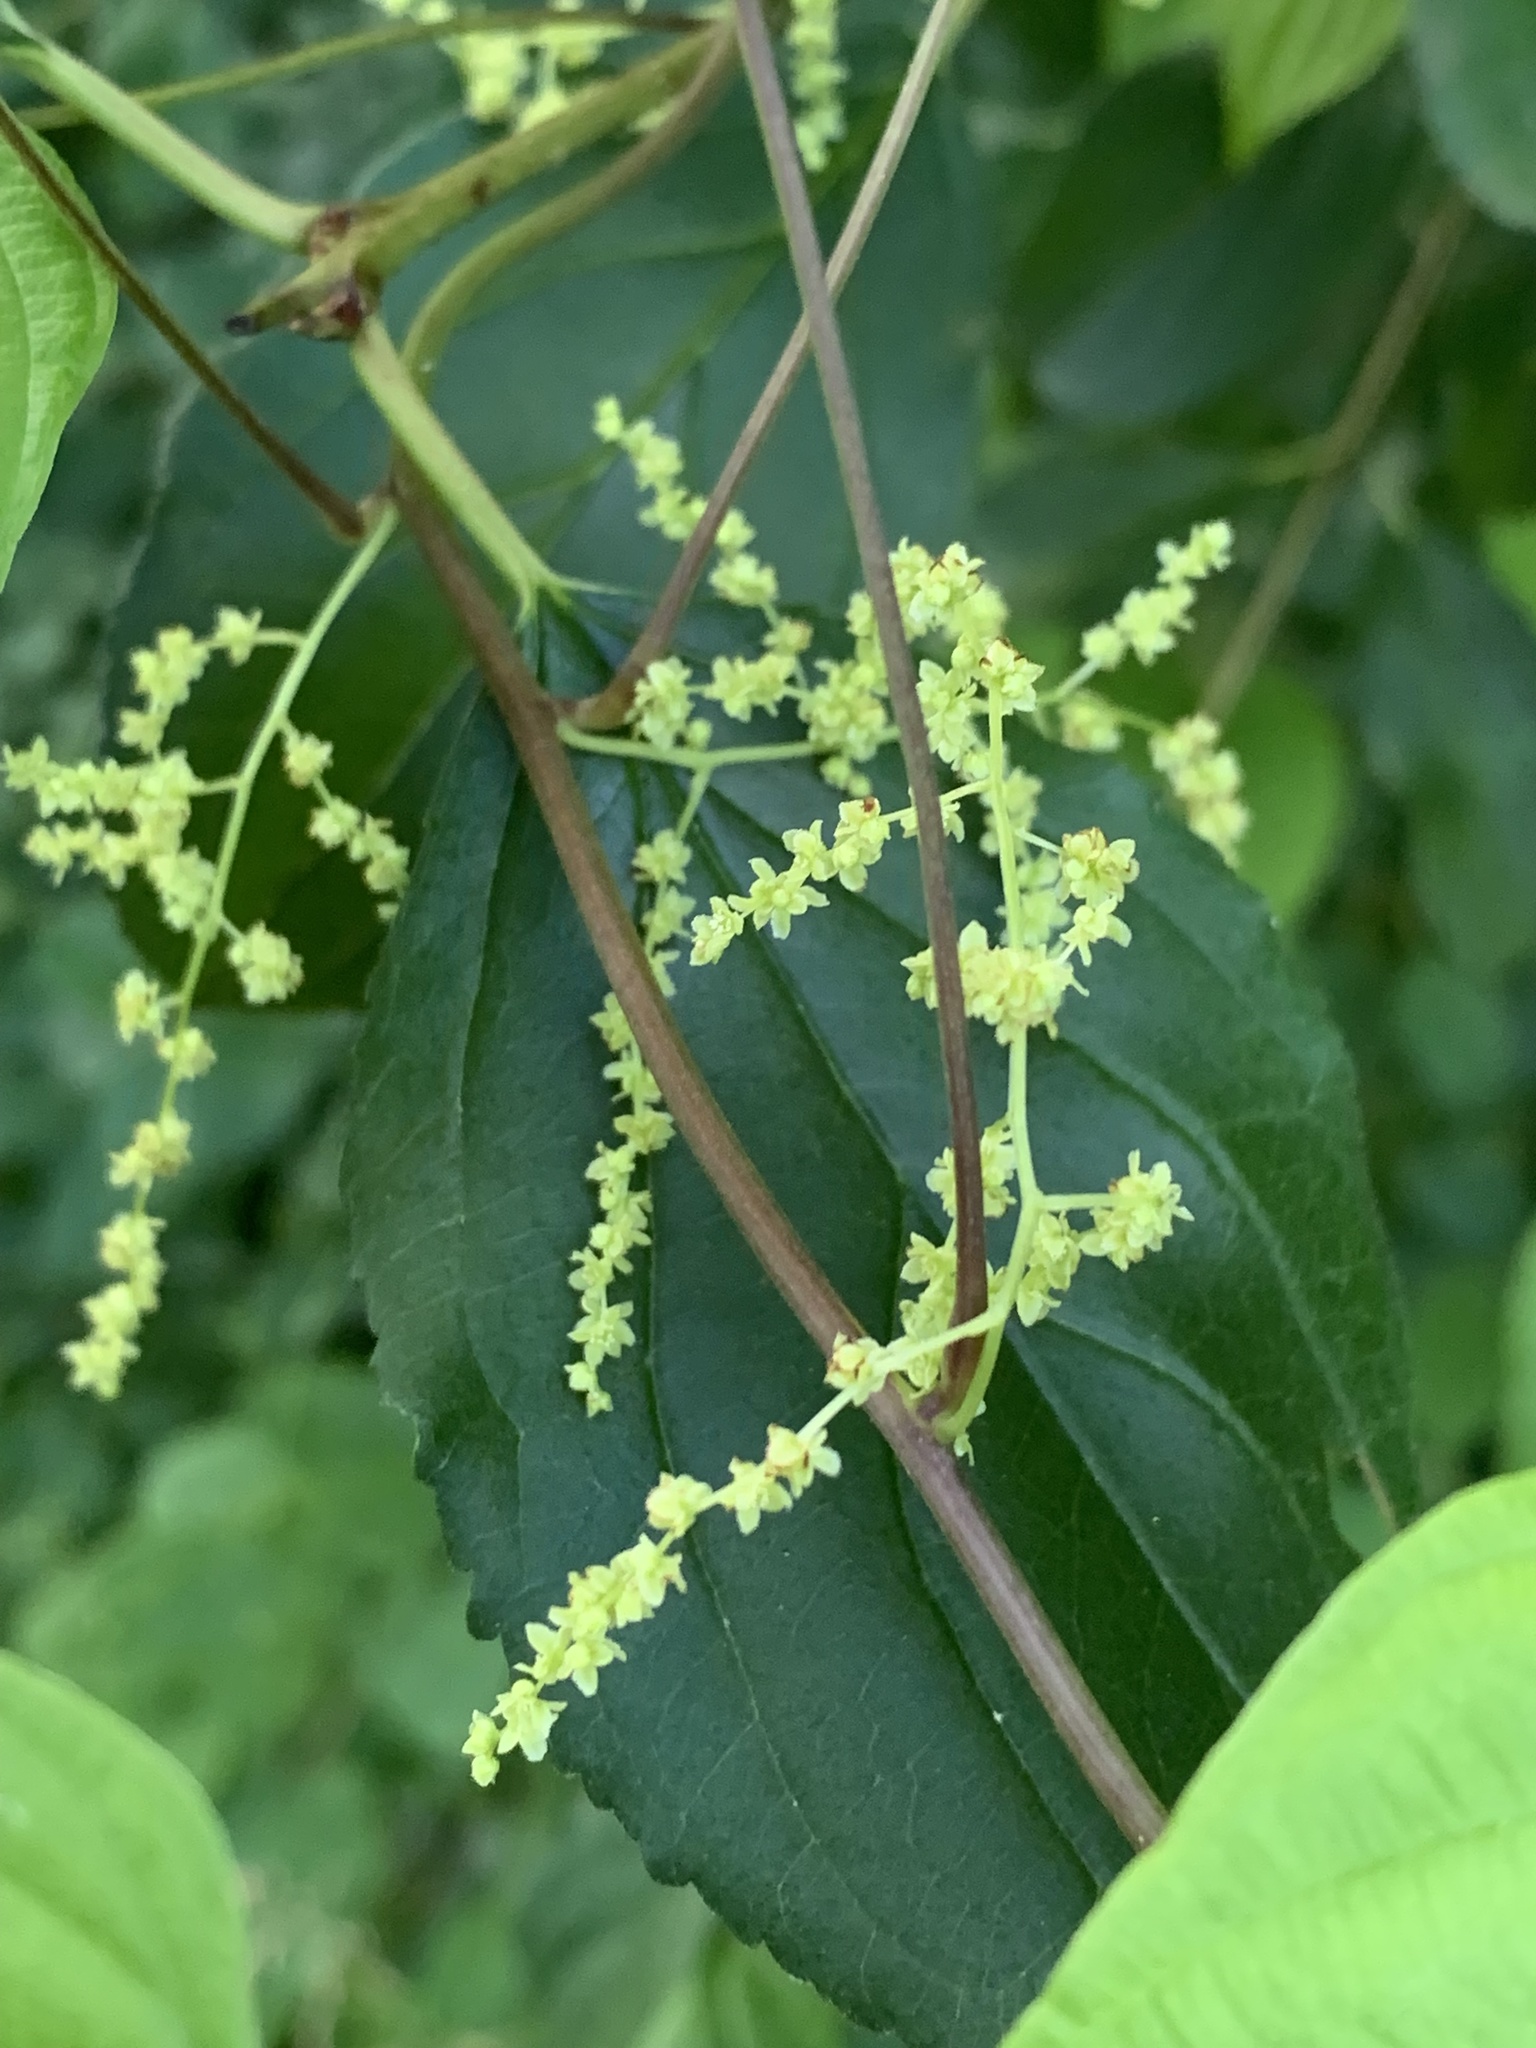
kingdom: Plantae
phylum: Tracheophyta
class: Liliopsida
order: Dioscoreales
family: Dioscoreaceae
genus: Dioscorea
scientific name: Dioscorea villosa
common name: Wild yam
